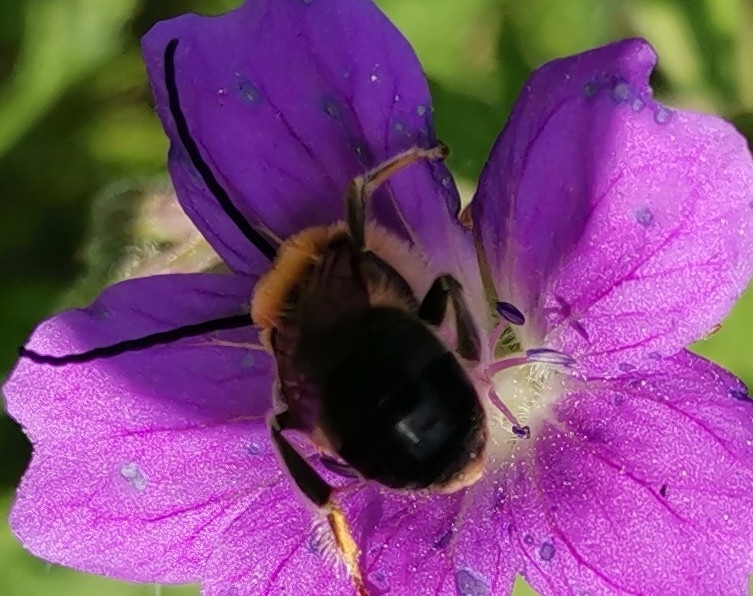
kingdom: Animalia
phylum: Arthropoda
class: Insecta
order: Hymenoptera
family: Apidae
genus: Eucera
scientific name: Eucera longicornis
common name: Long-horned bee
